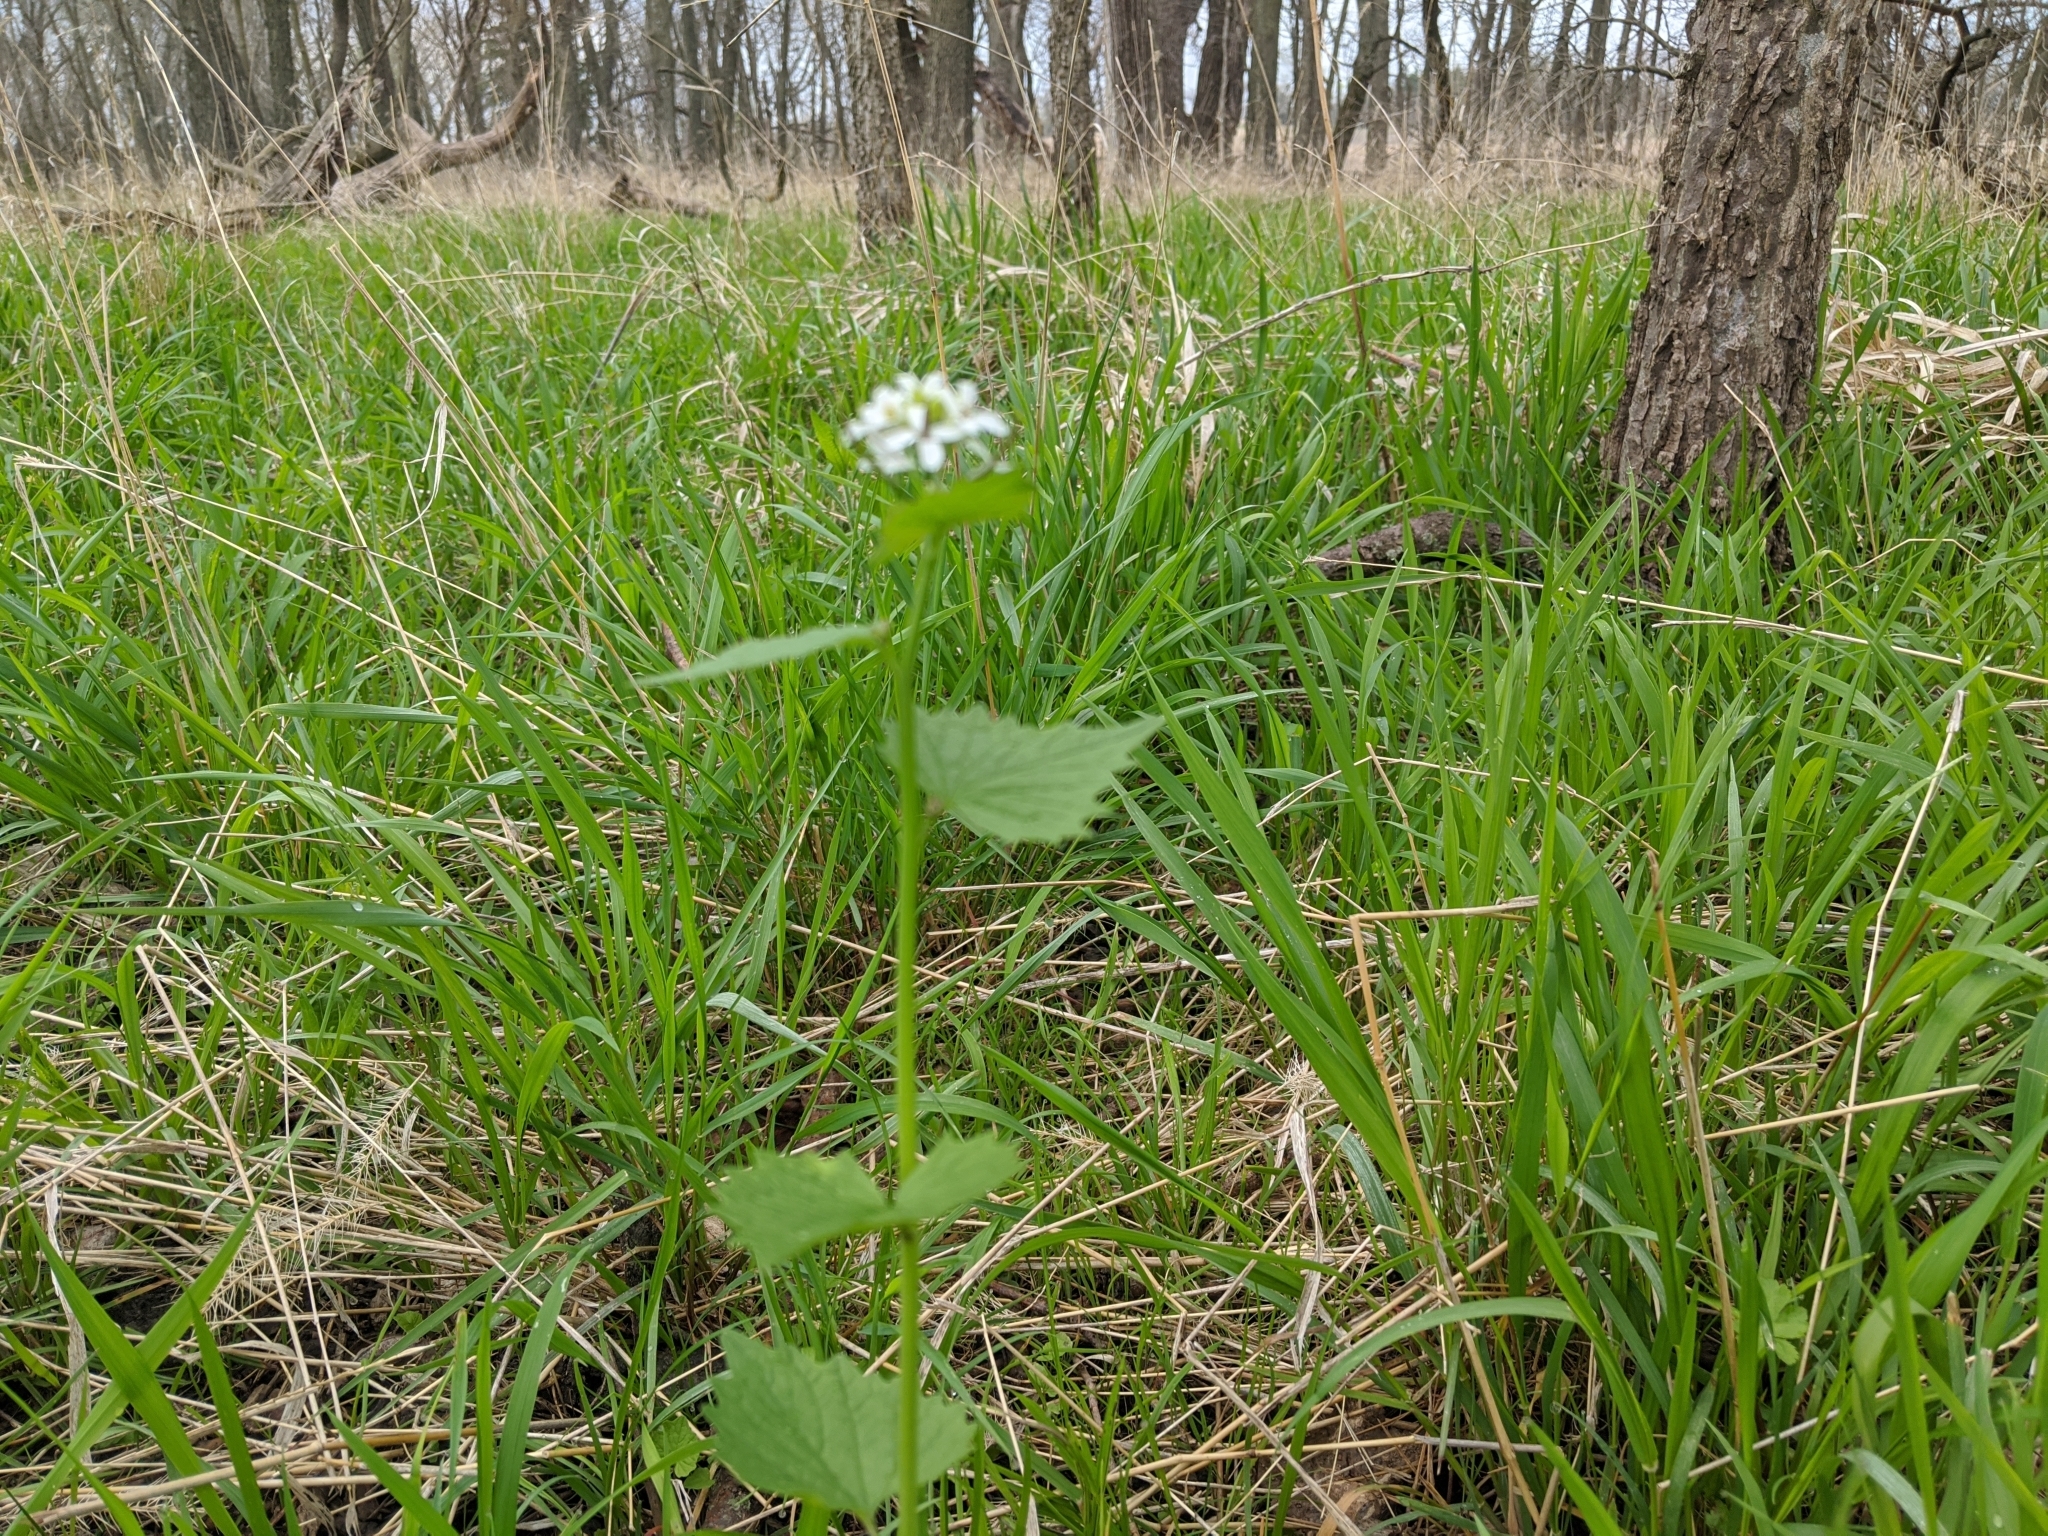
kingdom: Plantae
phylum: Tracheophyta
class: Magnoliopsida
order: Brassicales
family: Brassicaceae
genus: Alliaria
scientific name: Alliaria petiolata
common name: Garlic mustard
